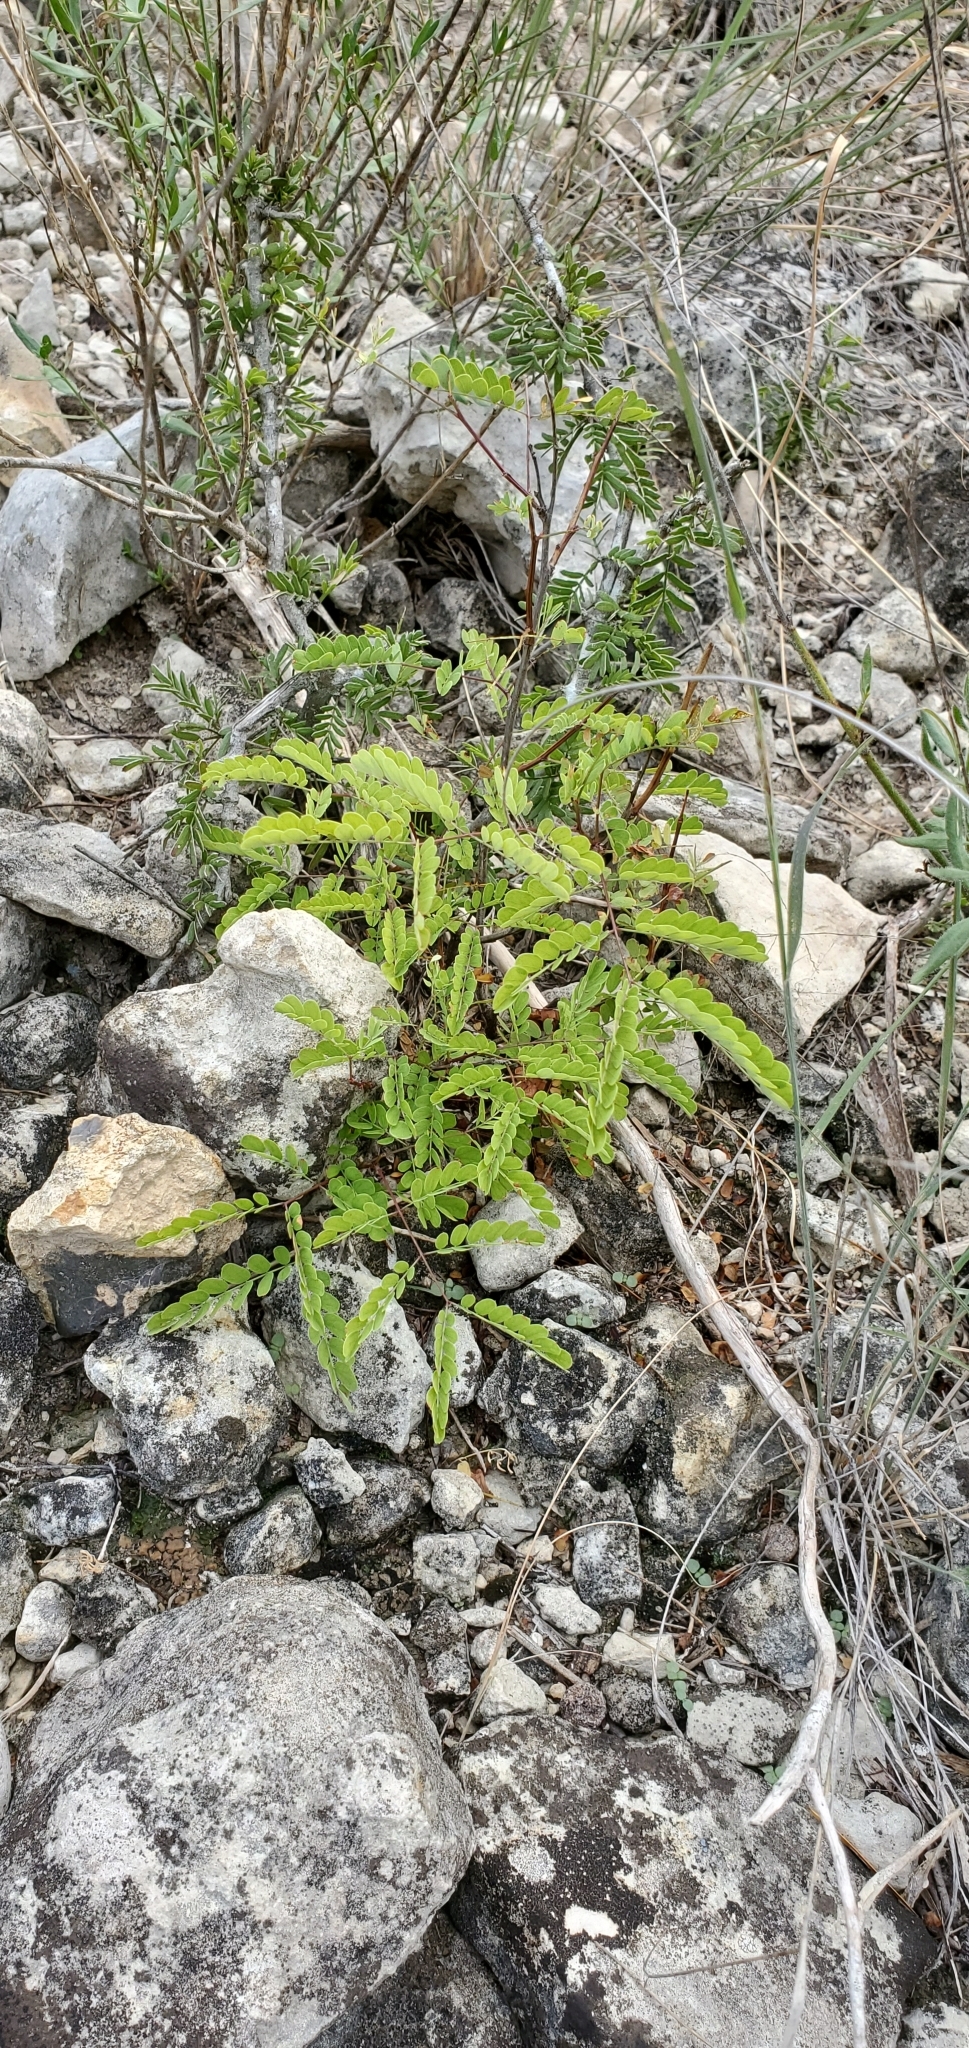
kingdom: Plantae
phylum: Tracheophyta
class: Magnoliopsida
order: Fabales
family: Fabaceae
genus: Senegalia
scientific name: Senegalia roemeriana
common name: Roemer's acacia
